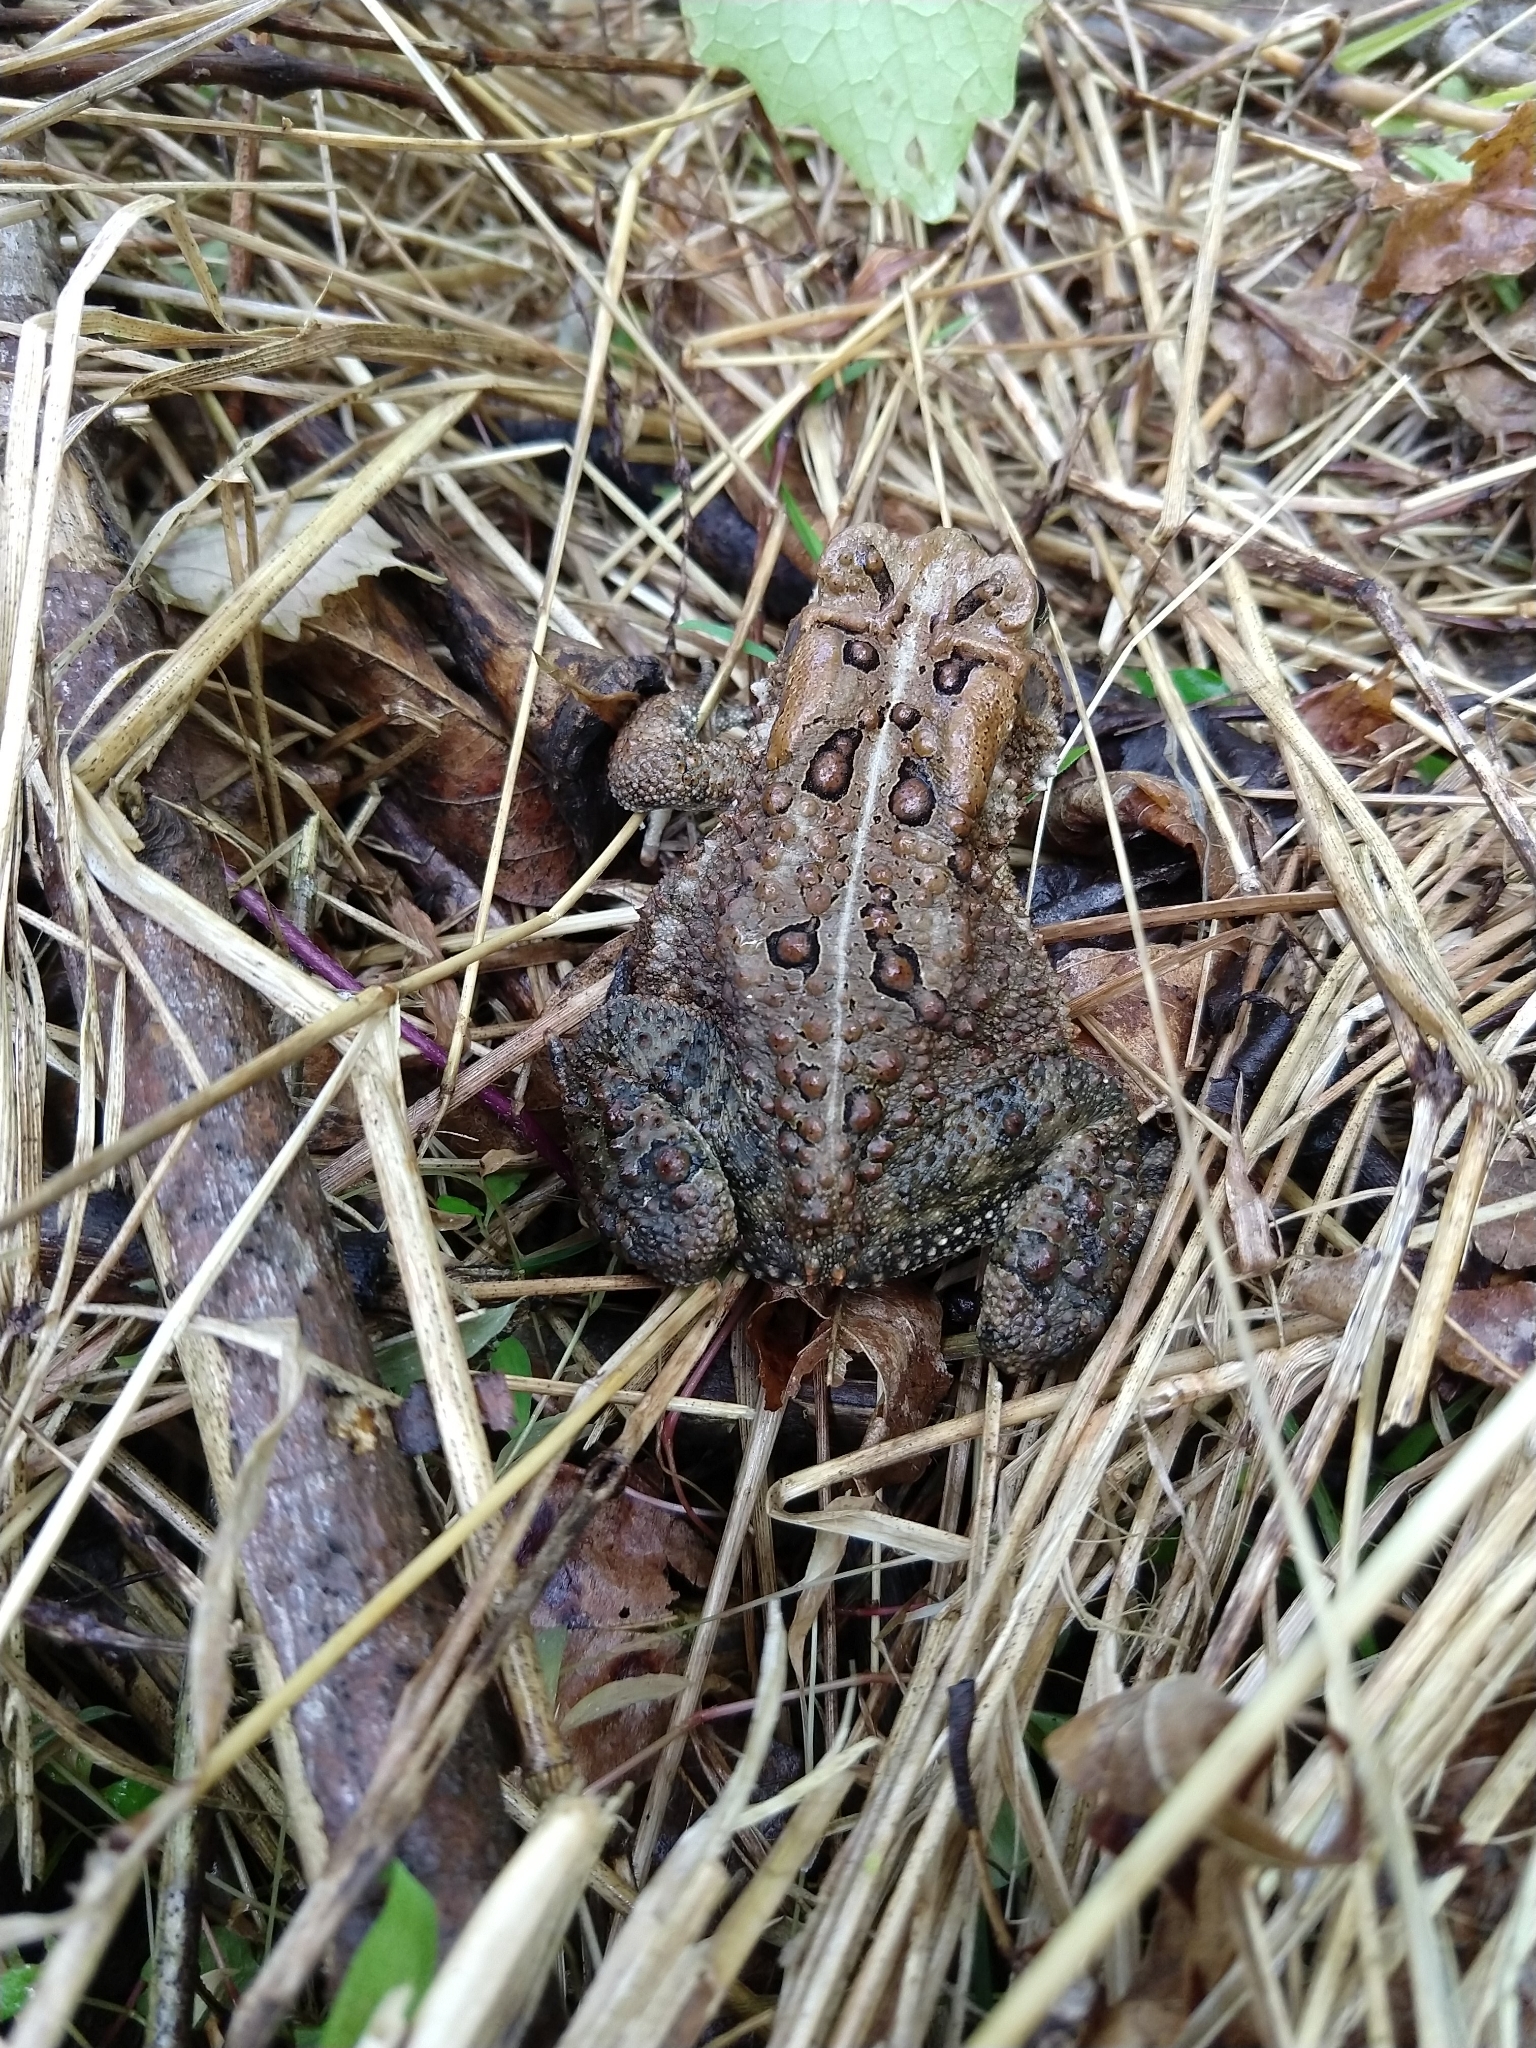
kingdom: Animalia
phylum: Chordata
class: Amphibia
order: Anura
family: Bufonidae
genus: Anaxyrus
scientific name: Anaxyrus americanus
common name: American toad
